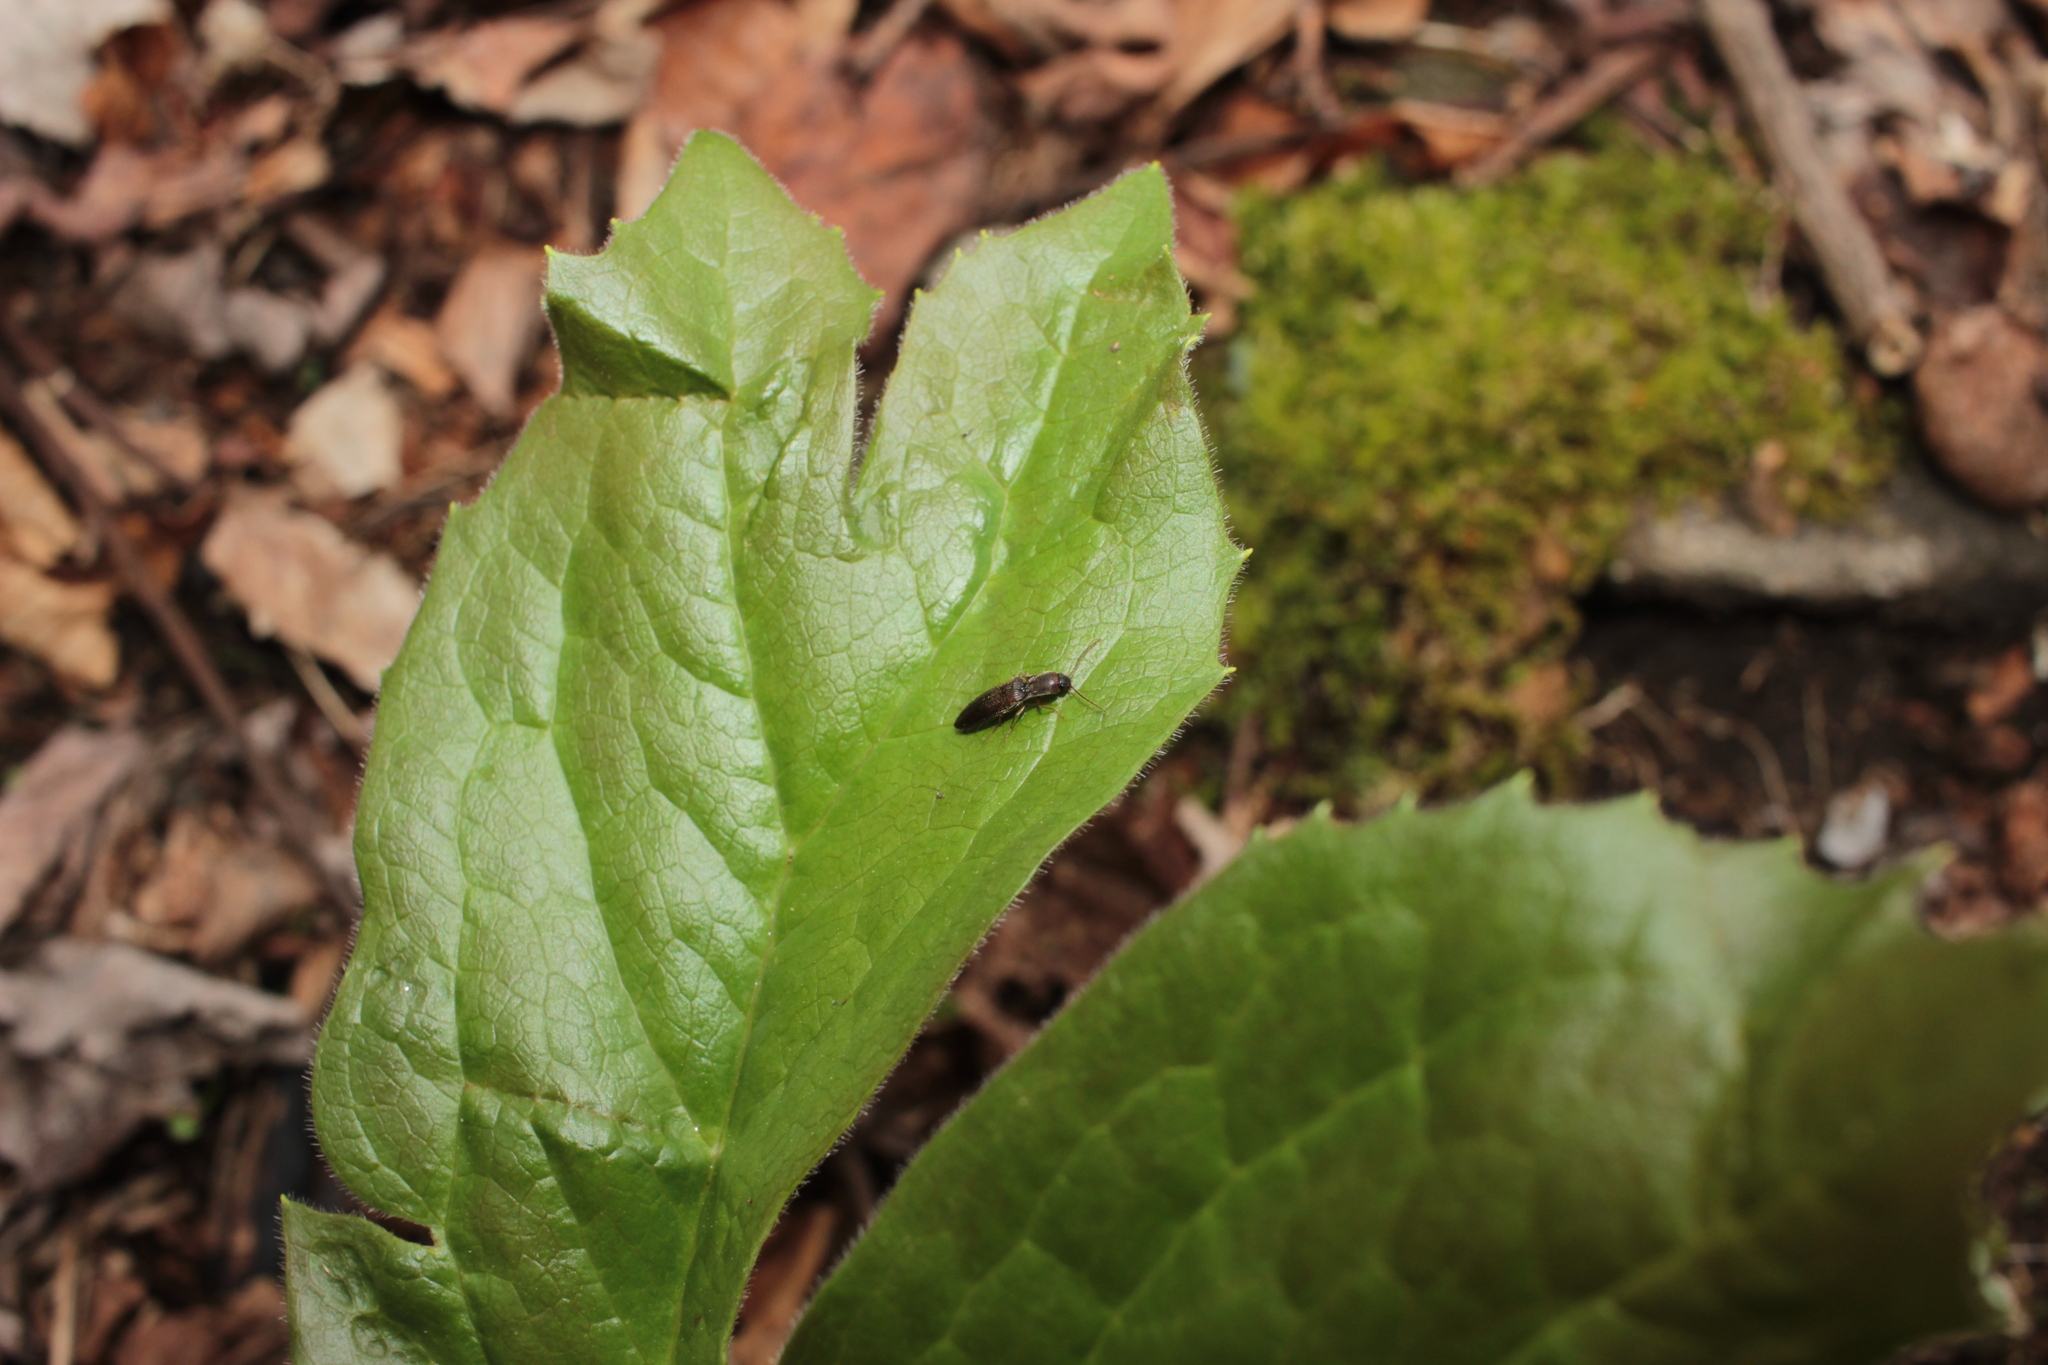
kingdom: Animalia
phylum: Arthropoda
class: Insecta
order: Coleoptera
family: Elateridae
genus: Agriotes
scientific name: Agriotes
